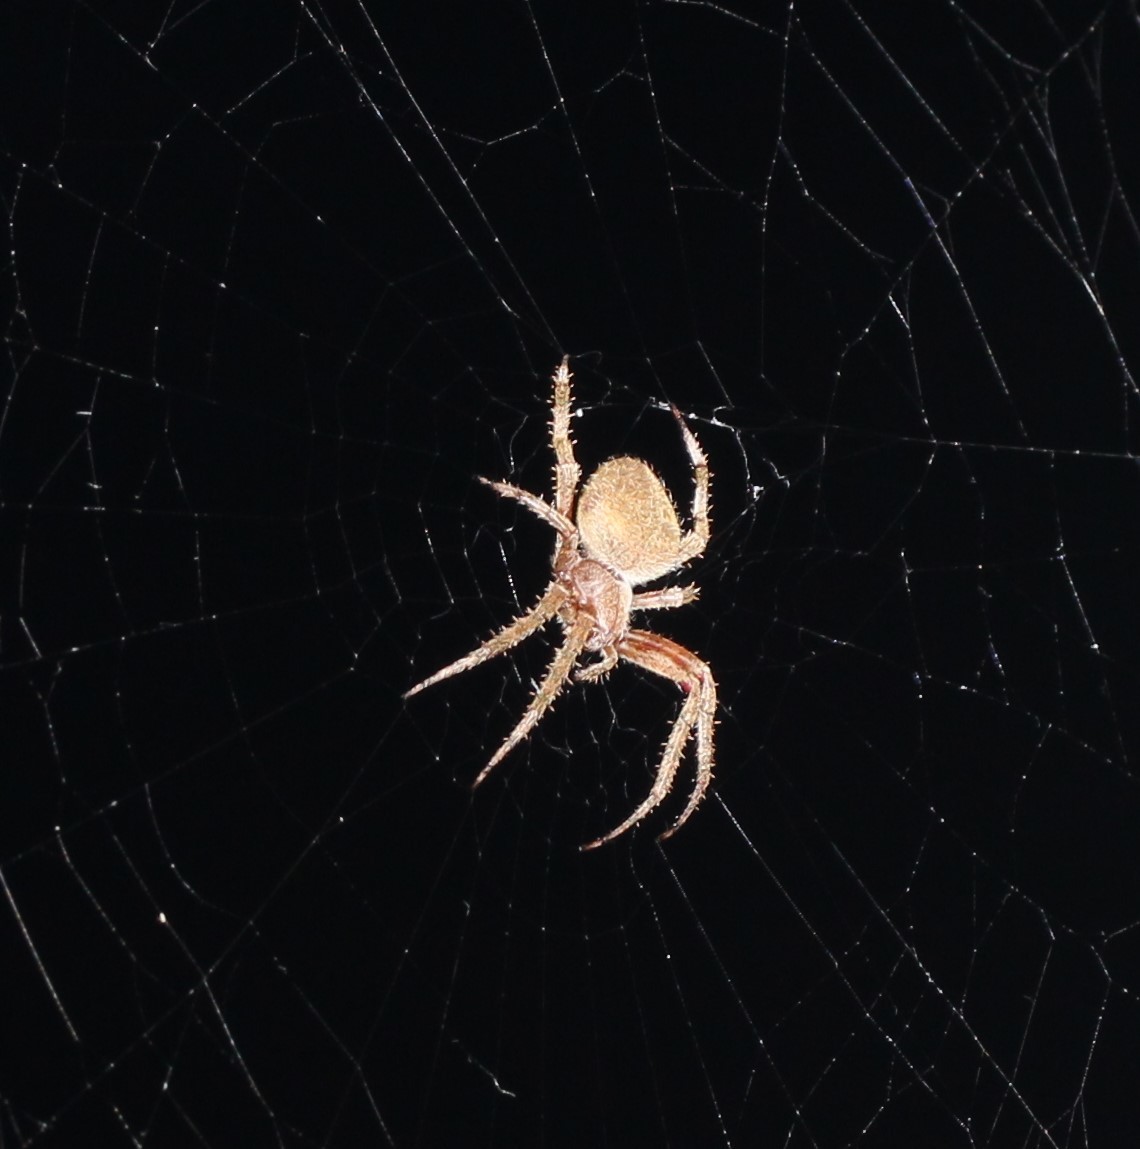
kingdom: Animalia
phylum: Arthropoda
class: Arachnida
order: Araneae
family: Araneidae
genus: Neoscona
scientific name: Neoscona crucifera
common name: Spotted orbweaver
